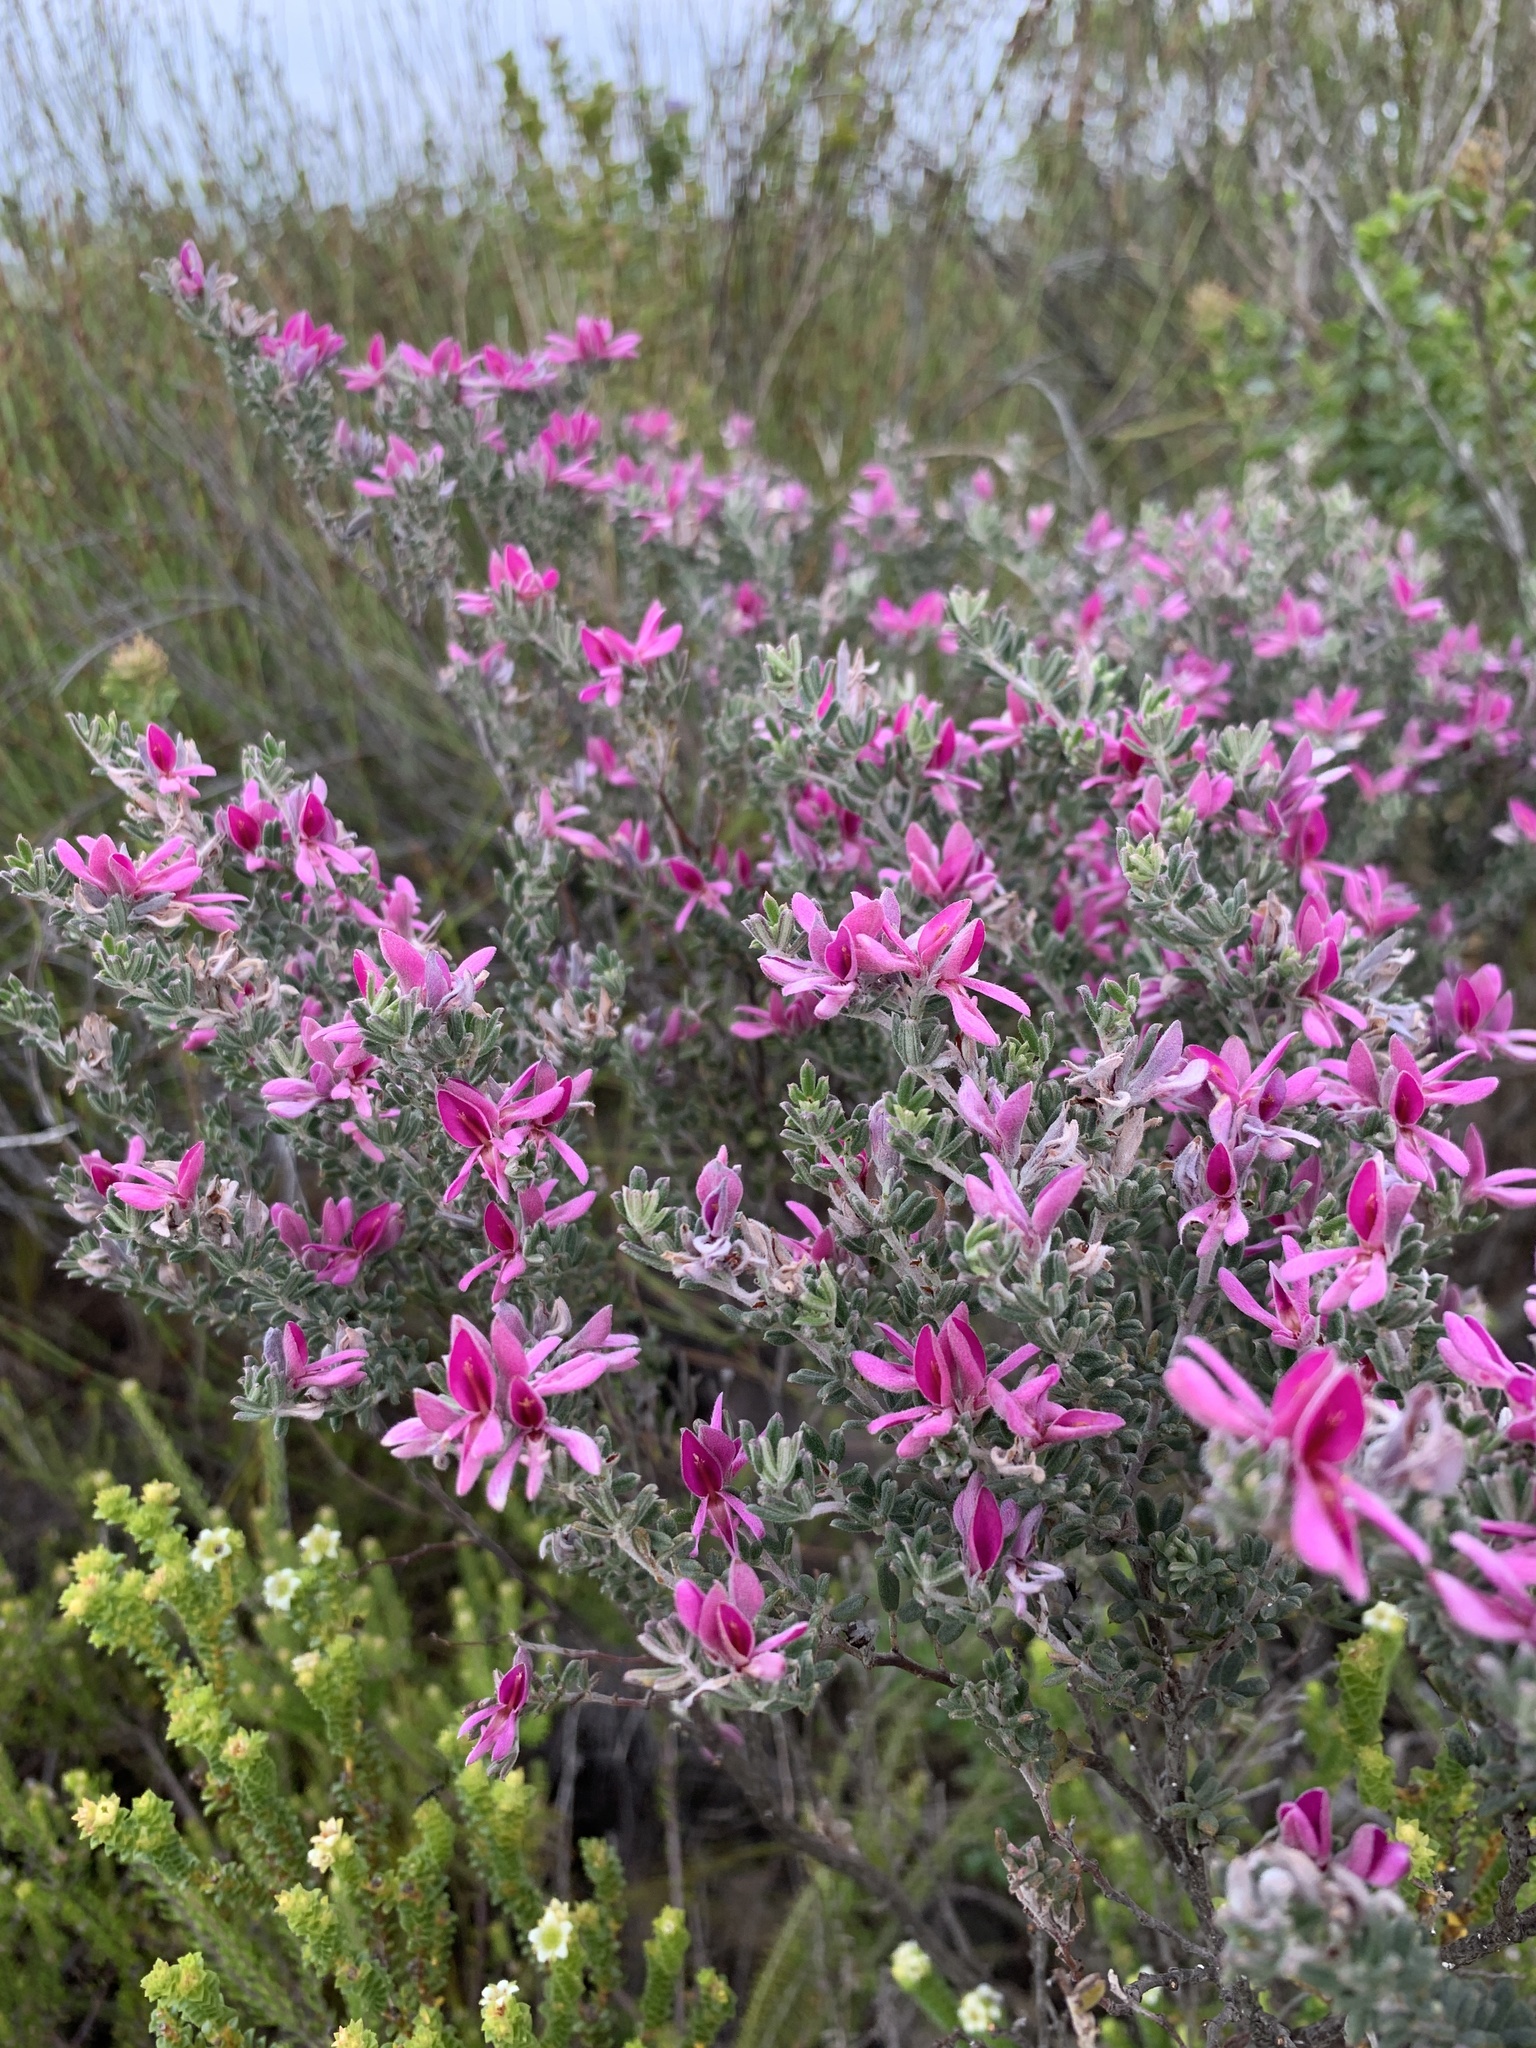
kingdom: Plantae
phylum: Tracheophyta
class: Magnoliopsida
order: Fabales
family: Fabaceae
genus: Indigofera
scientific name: Indigofera
